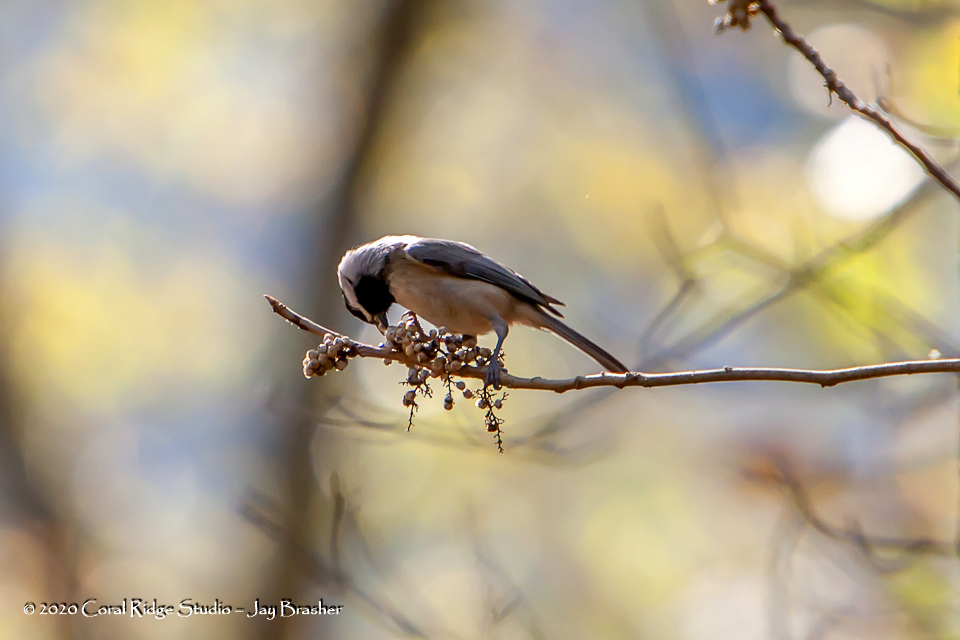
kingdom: Animalia
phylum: Chordata
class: Aves
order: Passeriformes
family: Paridae
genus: Poecile
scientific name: Poecile carolinensis
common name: Carolina chickadee
